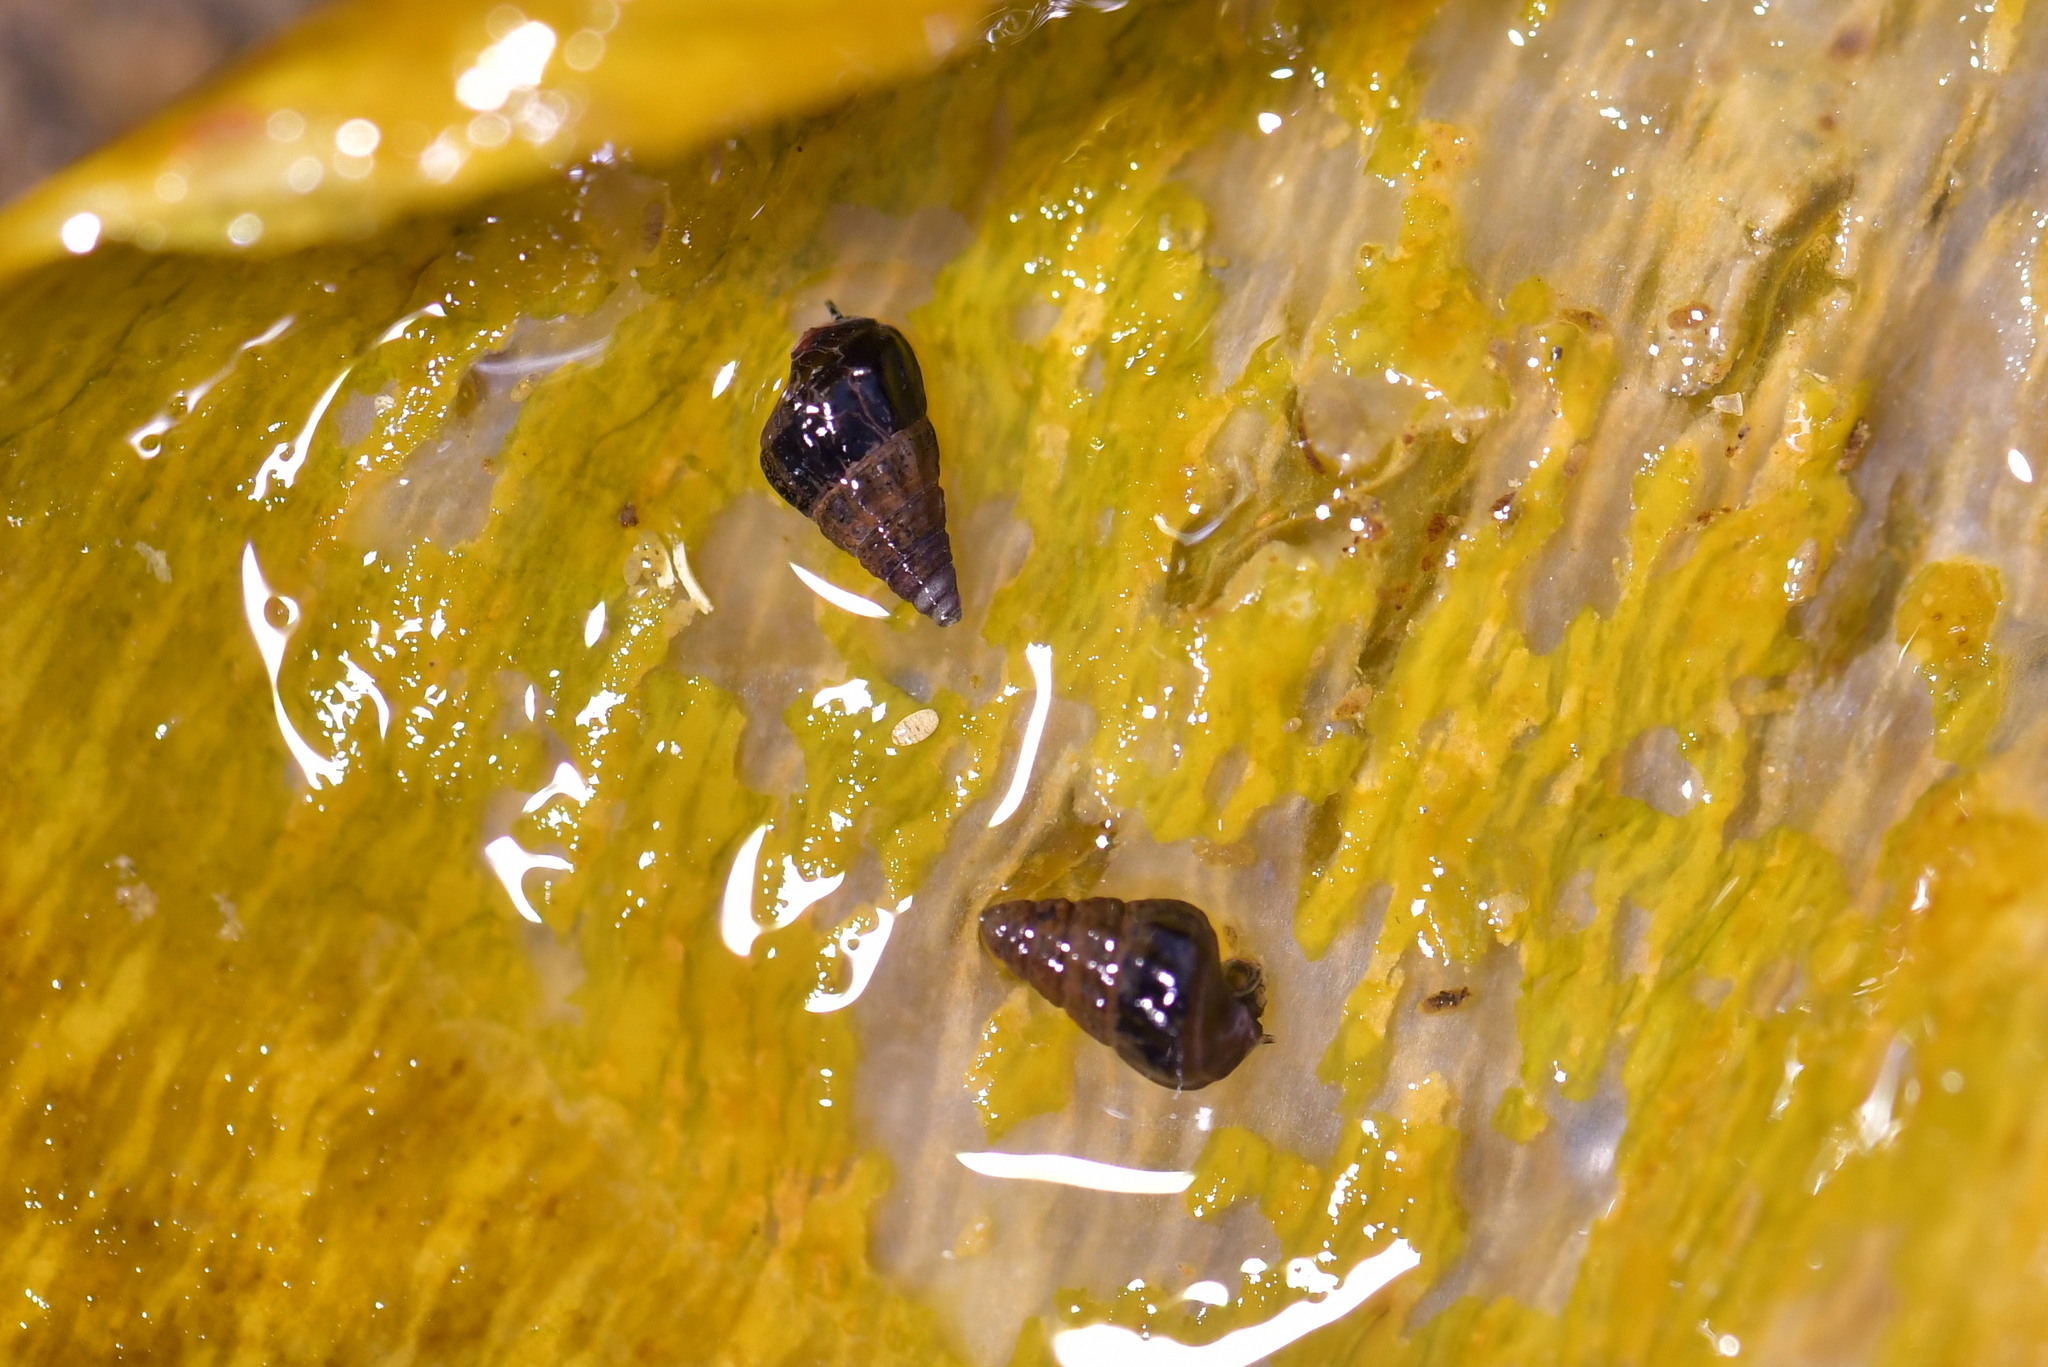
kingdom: Animalia
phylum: Mollusca
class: Gastropoda
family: Batillariidae
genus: Zeacumantus
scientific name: Zeacumantus subcarinatus
